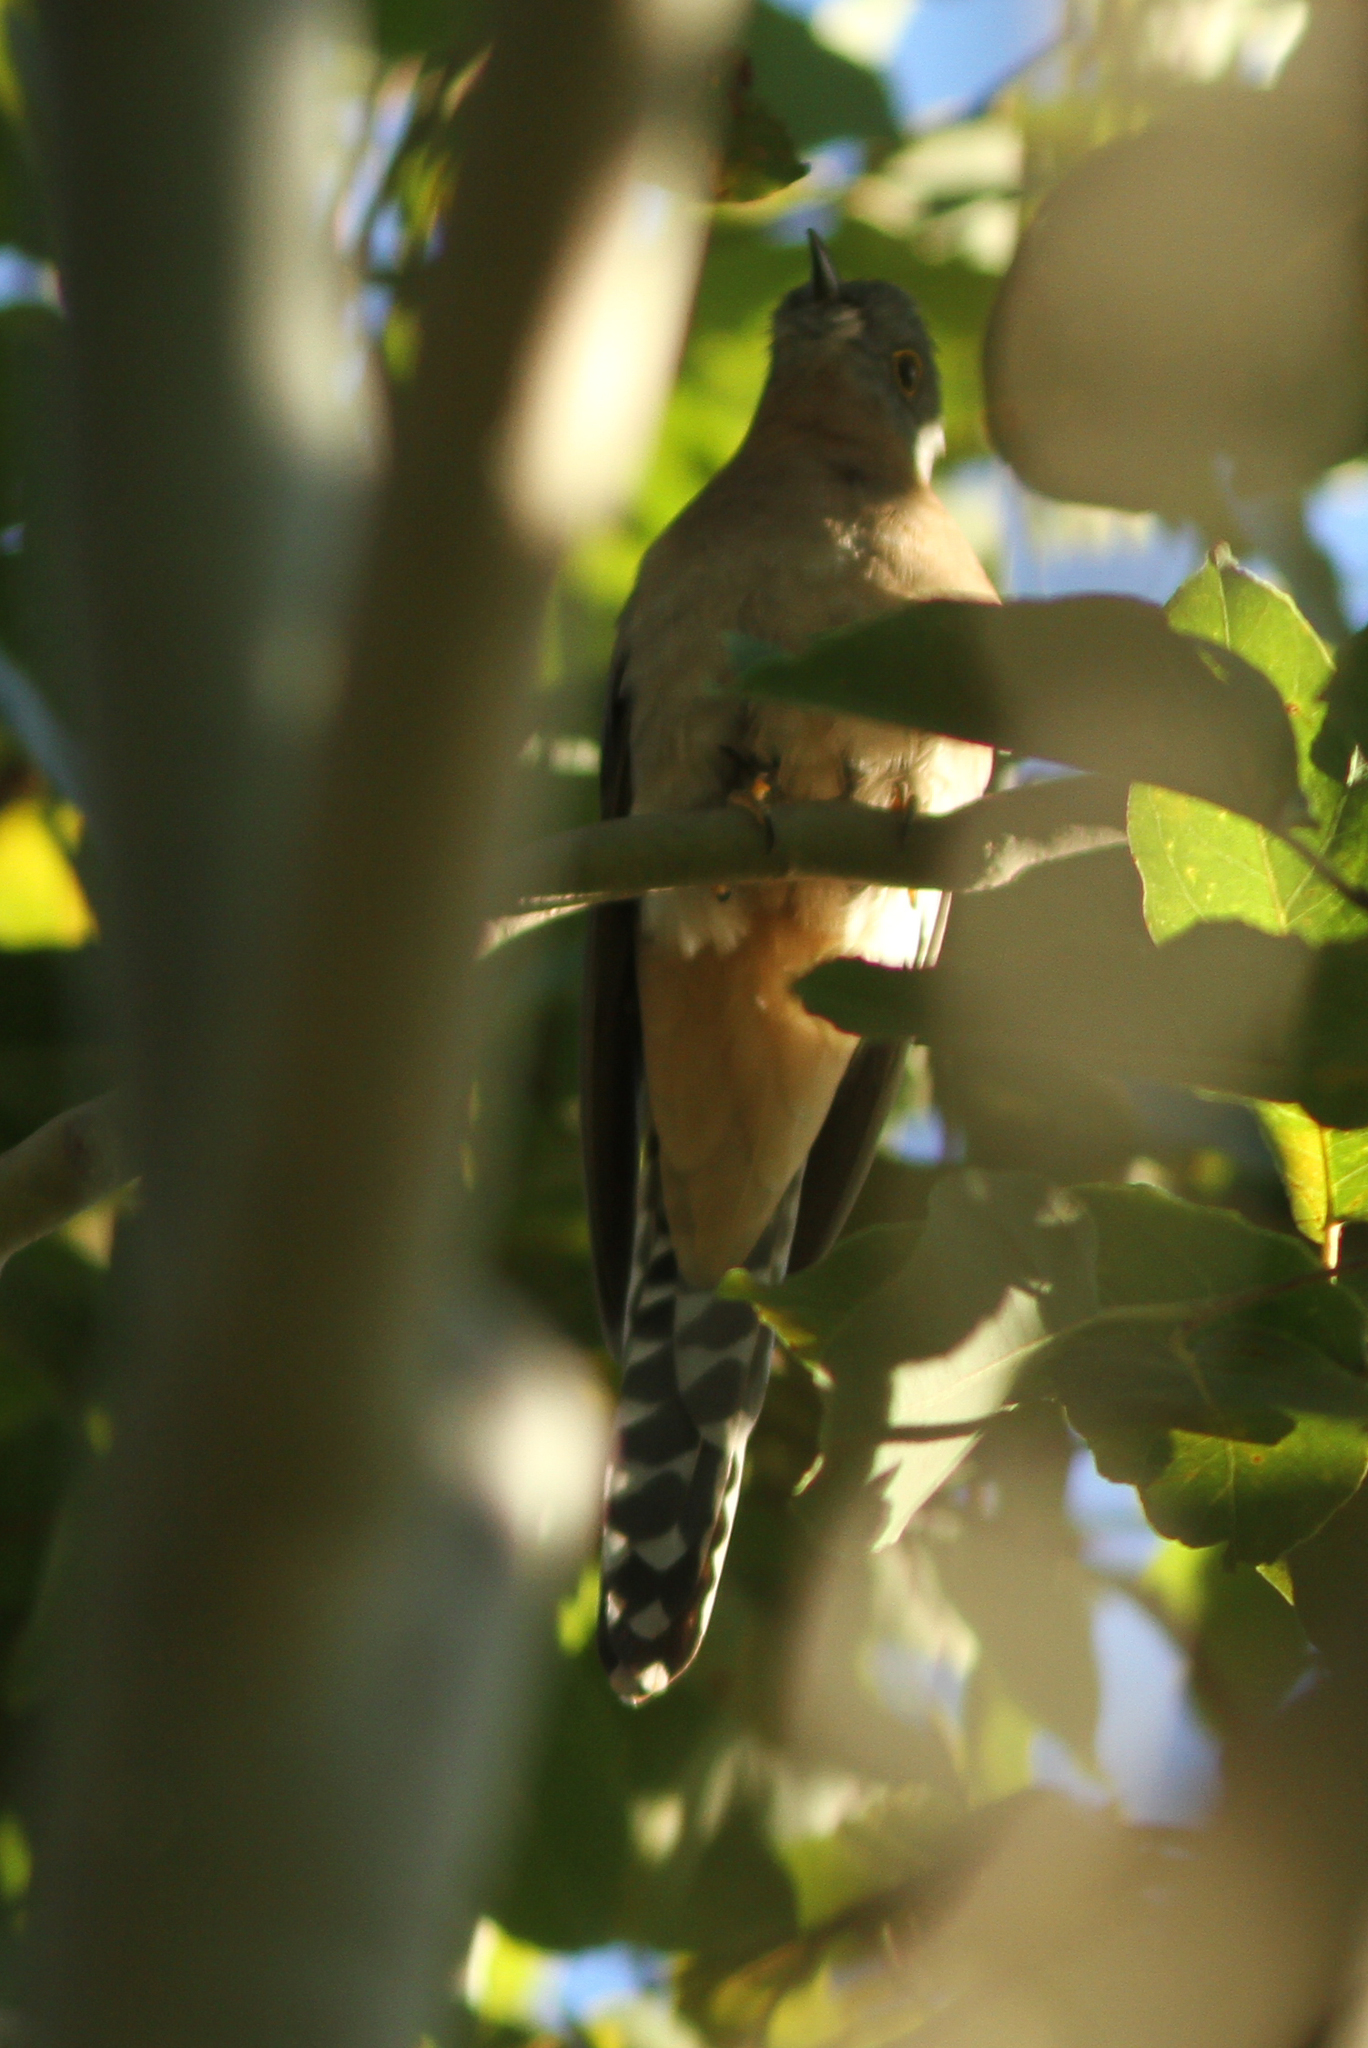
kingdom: Animalia
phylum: Chordata
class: Aves
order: Cuculiformes
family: Cuculidae
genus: Cacomantis
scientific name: Cacomantis flabelliformis
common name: Fan-tailed cuckoo
